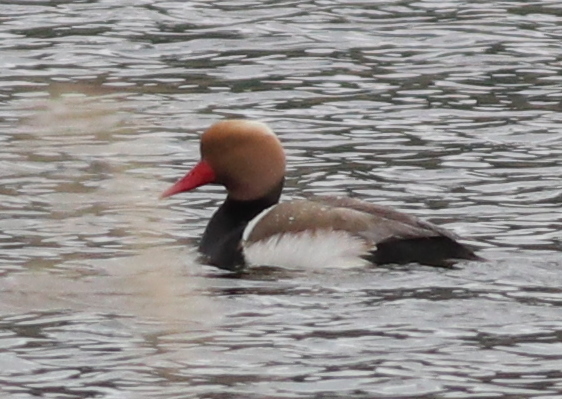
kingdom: Animalia
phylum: Chordata
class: Aves
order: Anseriformes
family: Anatidae
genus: Netta
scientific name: Netta rufina
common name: Red-crested pochard
